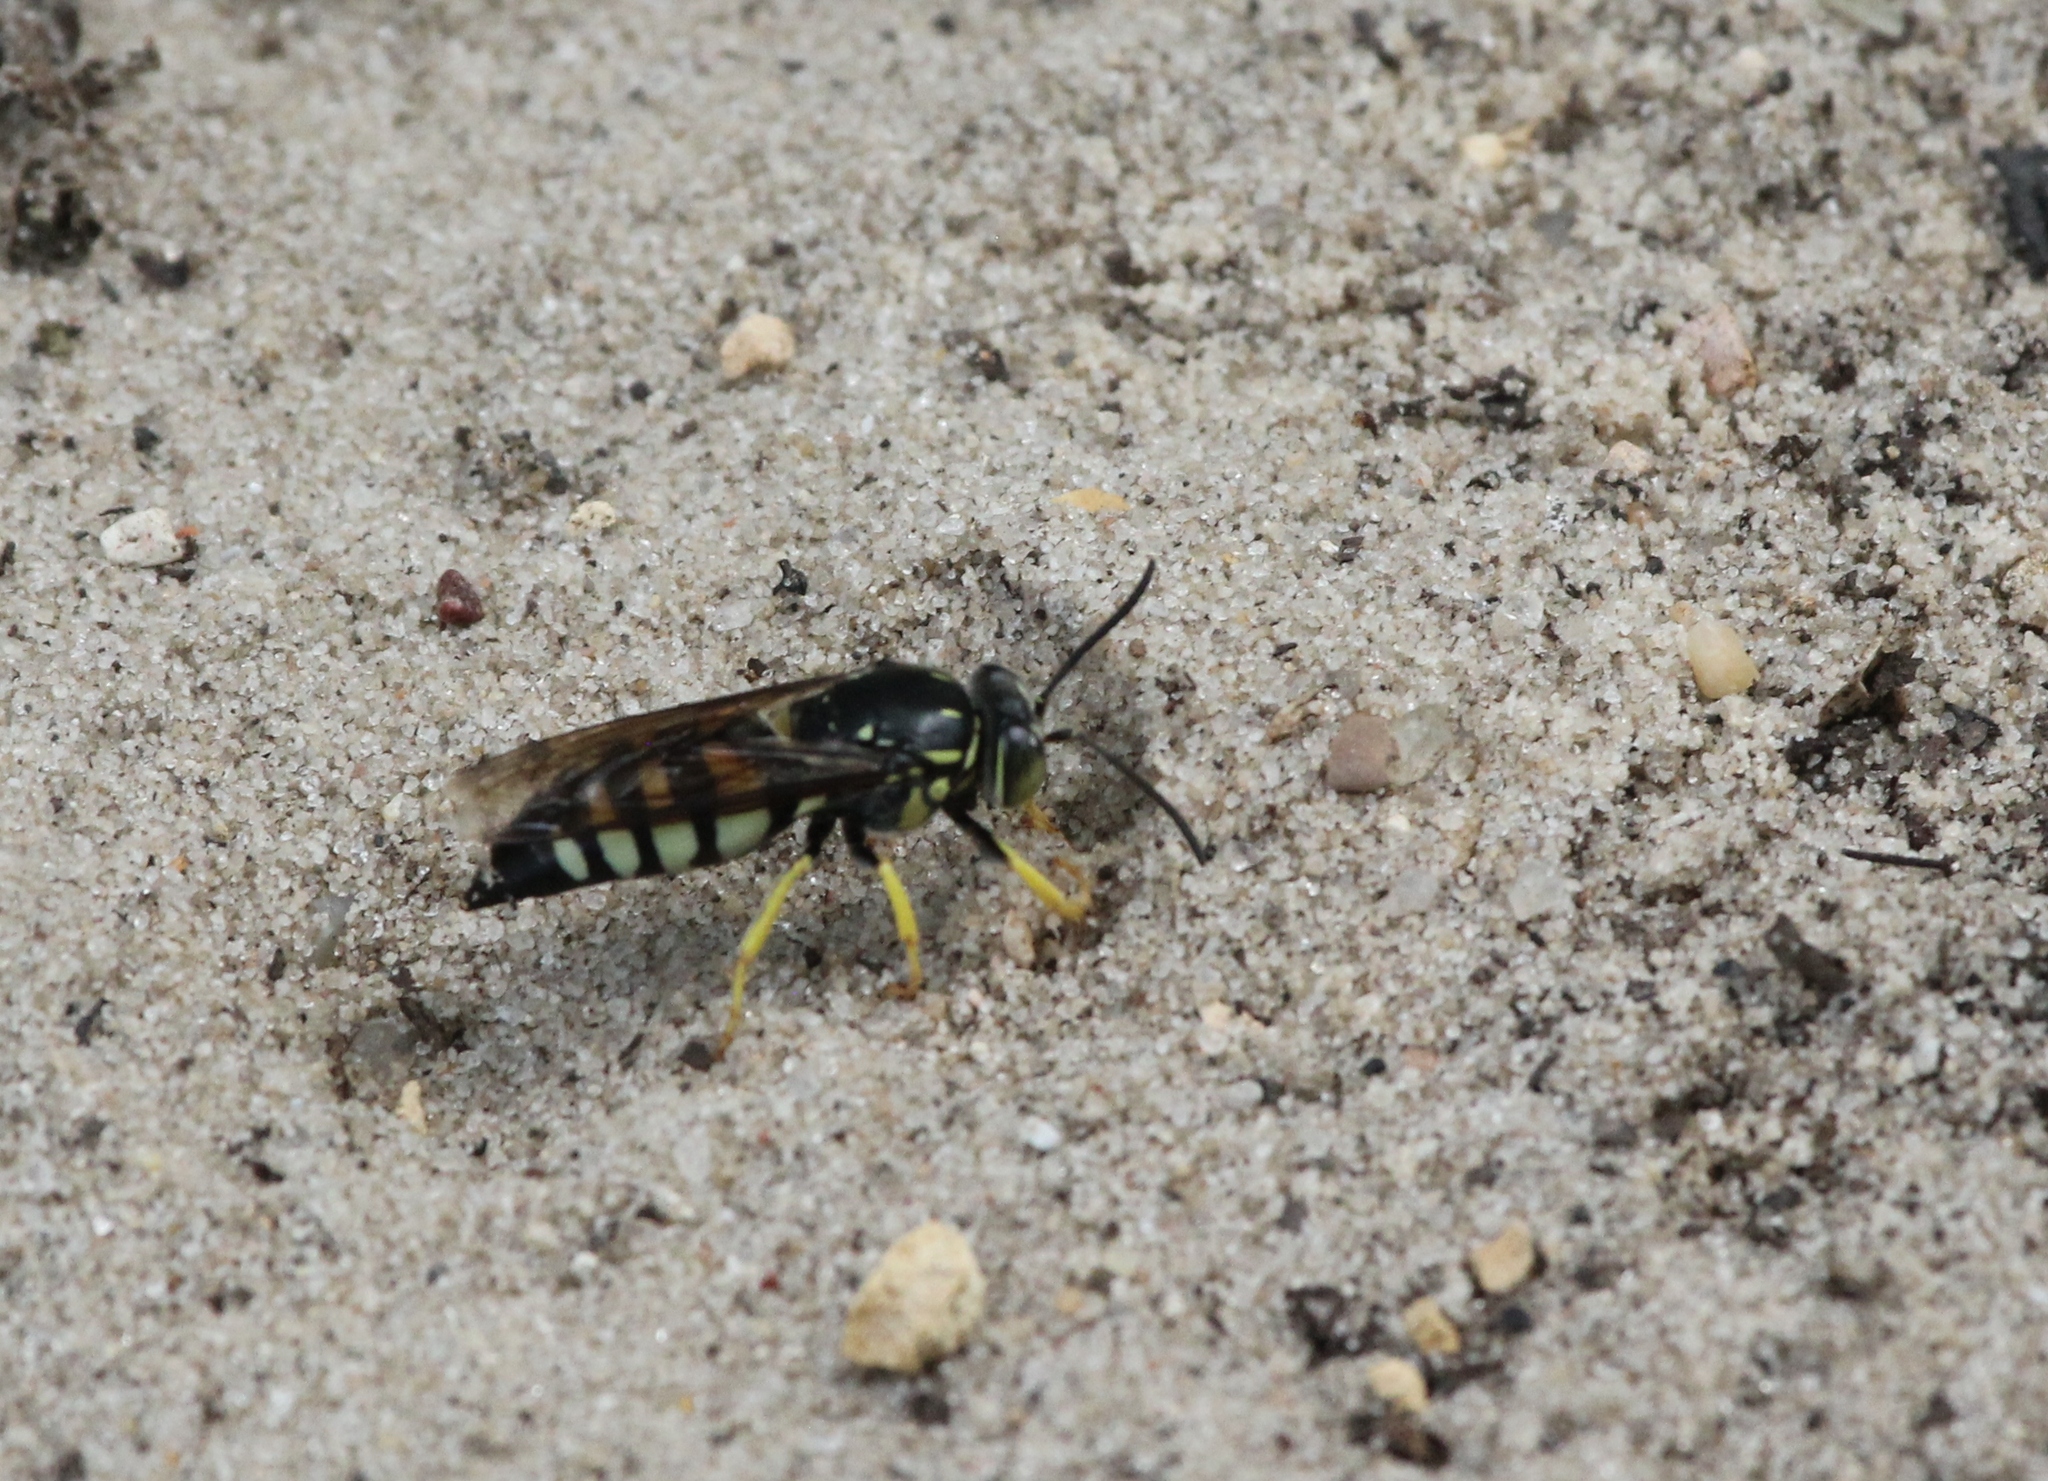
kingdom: Animalia
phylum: Arthropoda
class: Insecta
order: Hymenoptera
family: Crabronidae
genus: Bicyrtes
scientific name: Bicyrtes quadrifasciatus
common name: Four-banded stink bug hunter wasp
